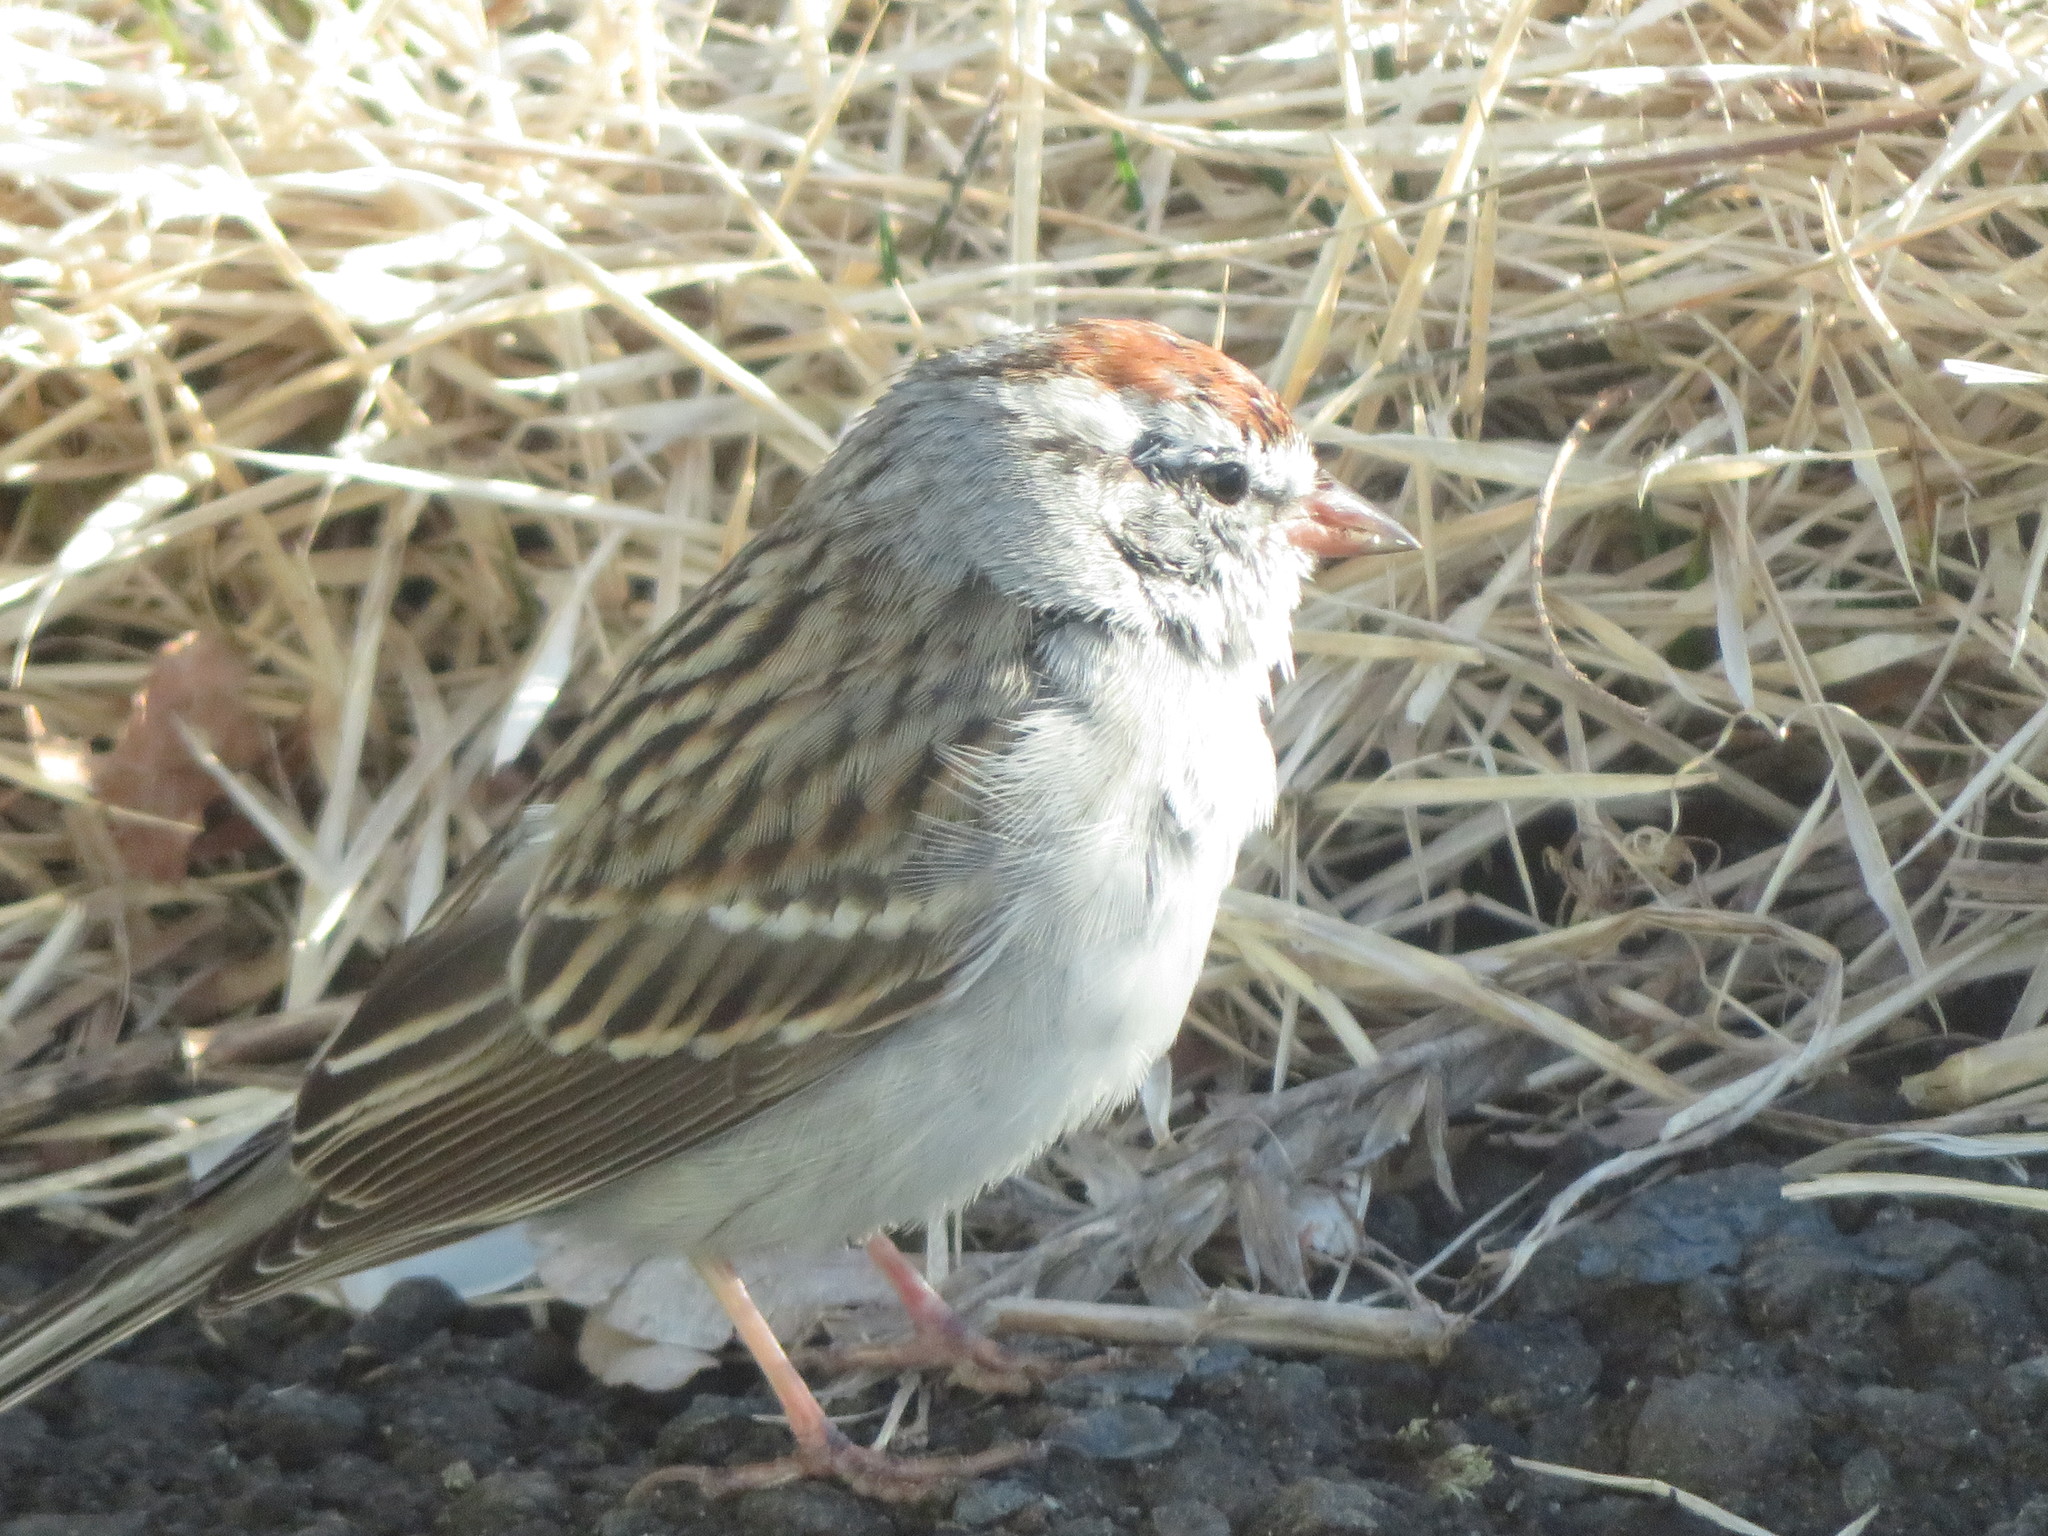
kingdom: Animalia
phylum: Chordata
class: Aves
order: Passeriformes
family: Passerellidae
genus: Spizella
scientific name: Spizella passerina
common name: Chipping sparrow
